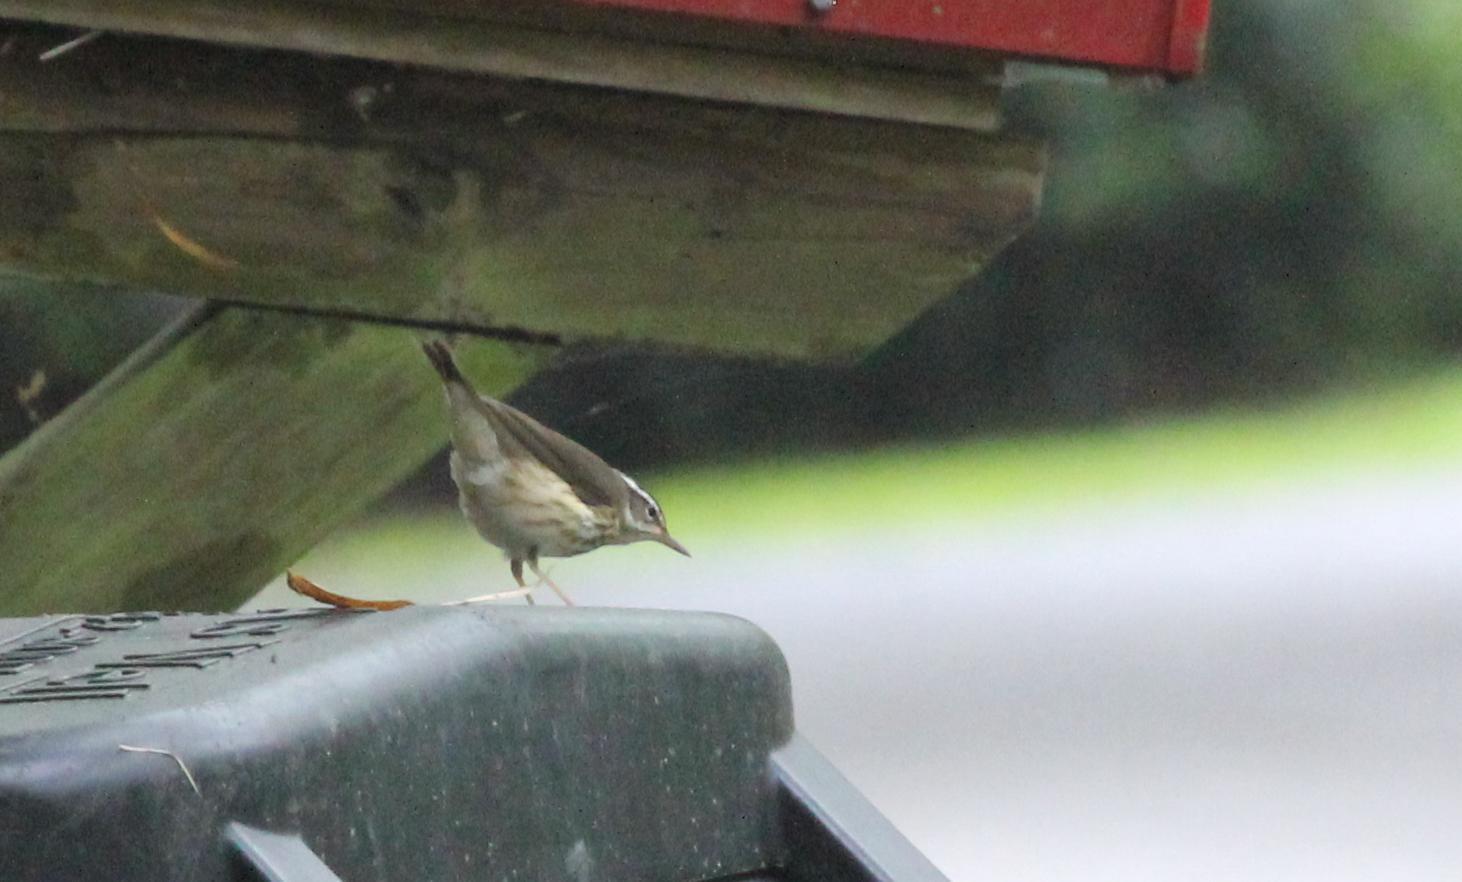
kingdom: Animalia
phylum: Chordata
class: Aves
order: Passeriformes
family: Parulidae
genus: Parkesia
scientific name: Parkesia motacilla
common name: Louisiana waterthrush
